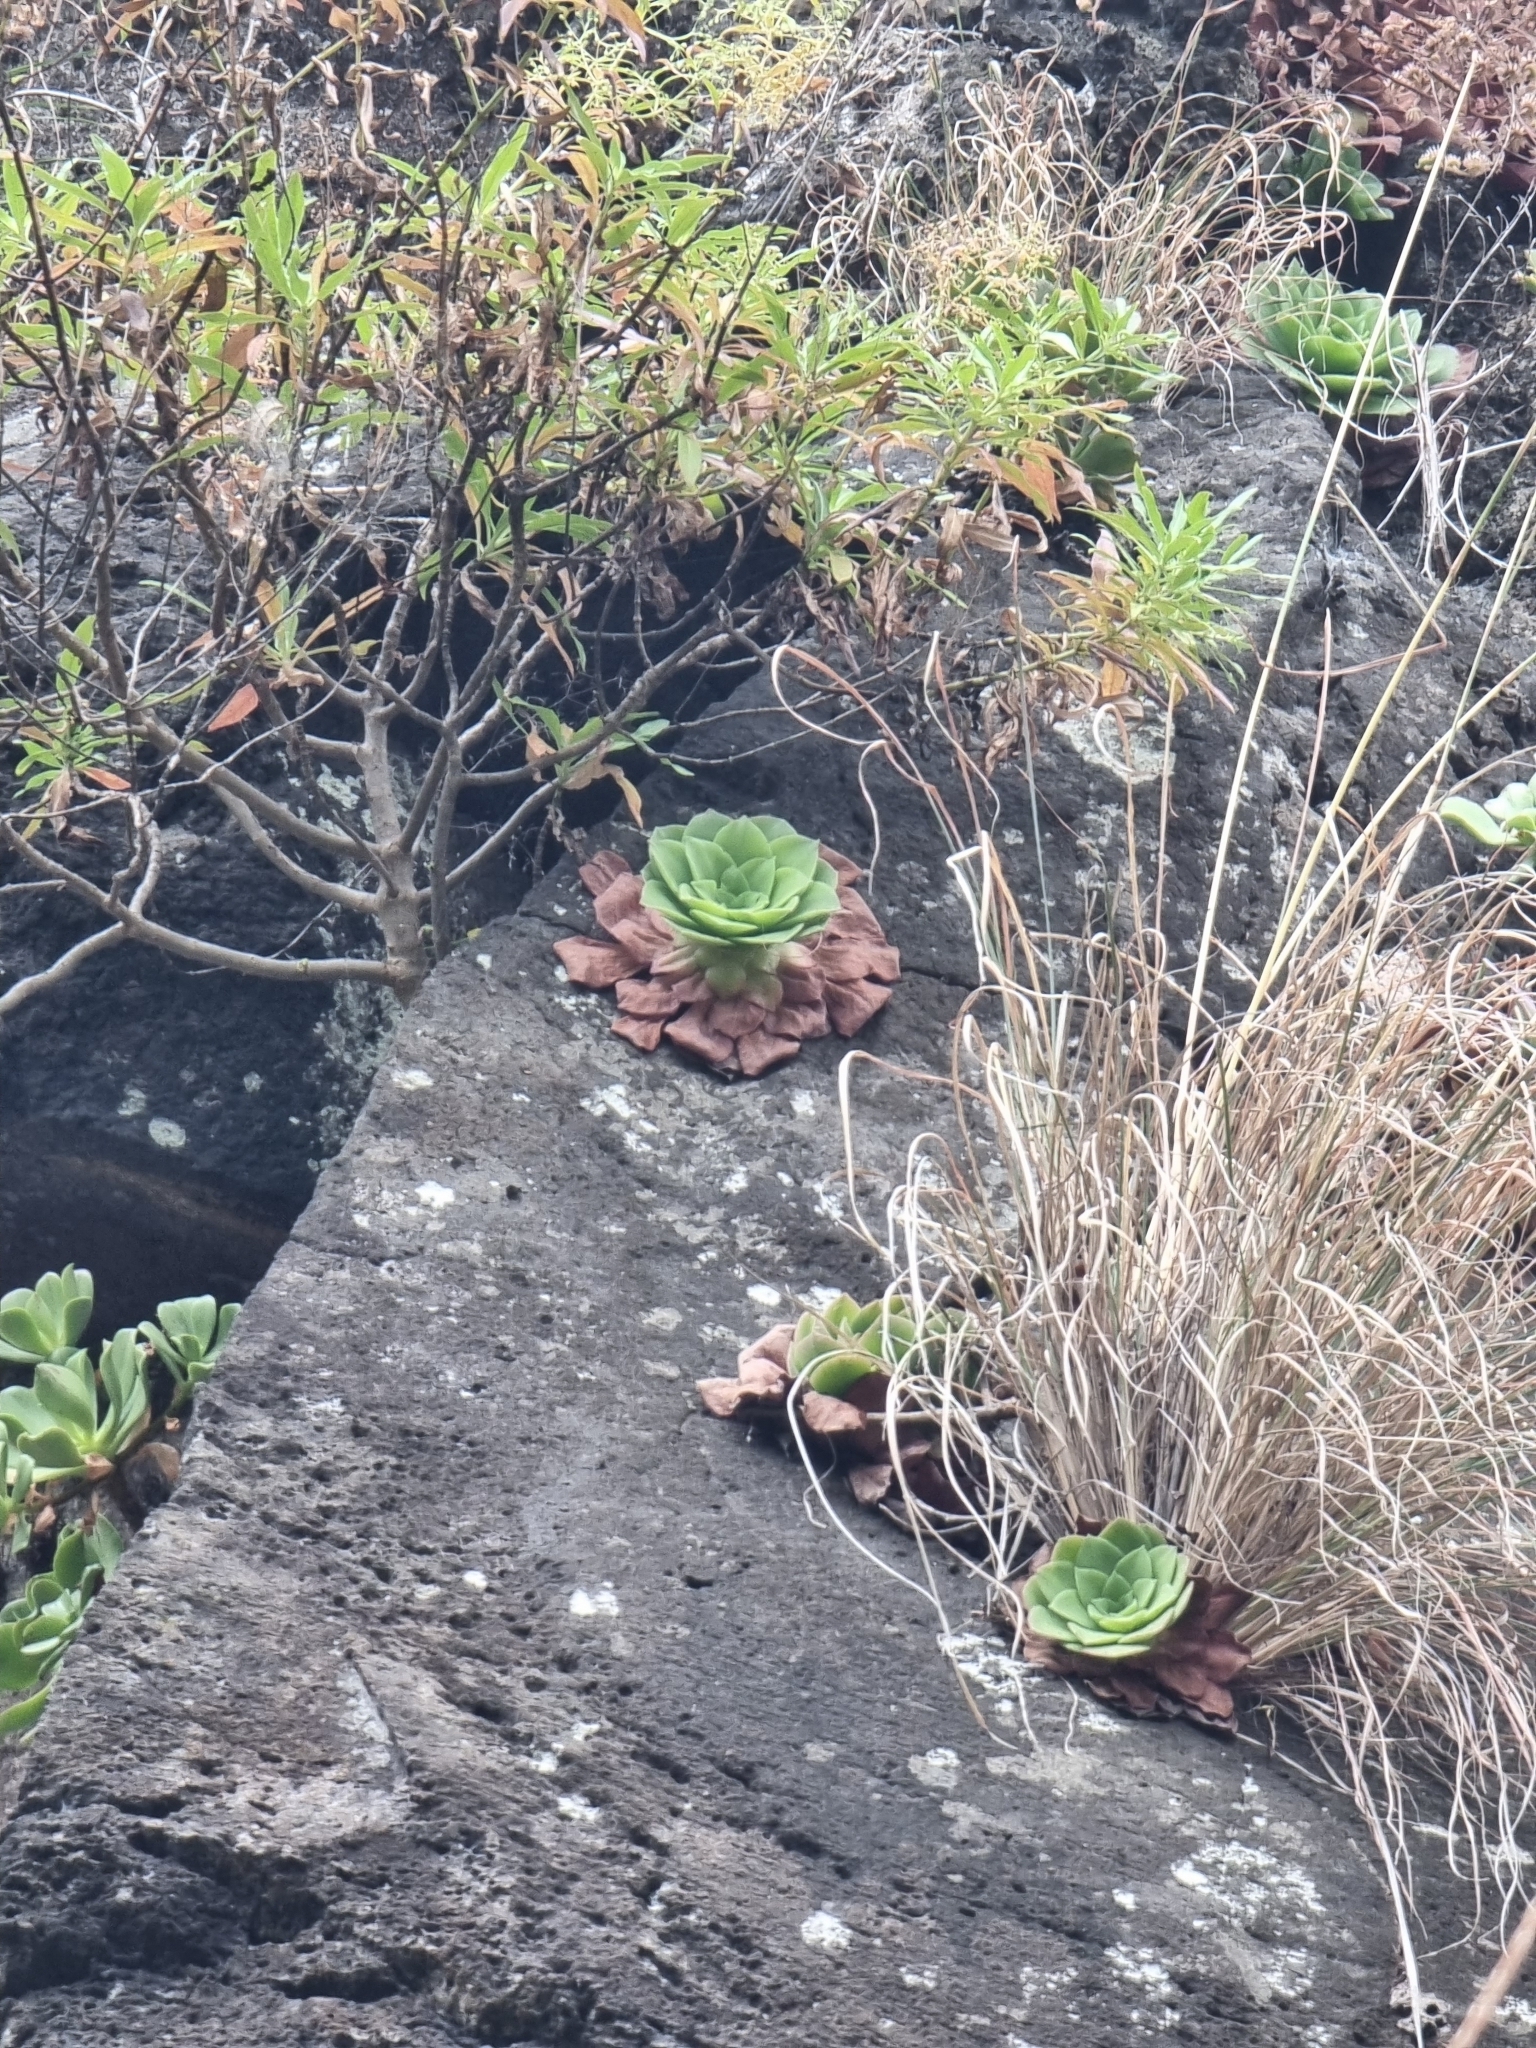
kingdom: Plantae
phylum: Tracheophyta
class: Magnoliopsida
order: Saxifragales
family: Crassulaceae
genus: Aeonium
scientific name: Aeonium glandulosum
